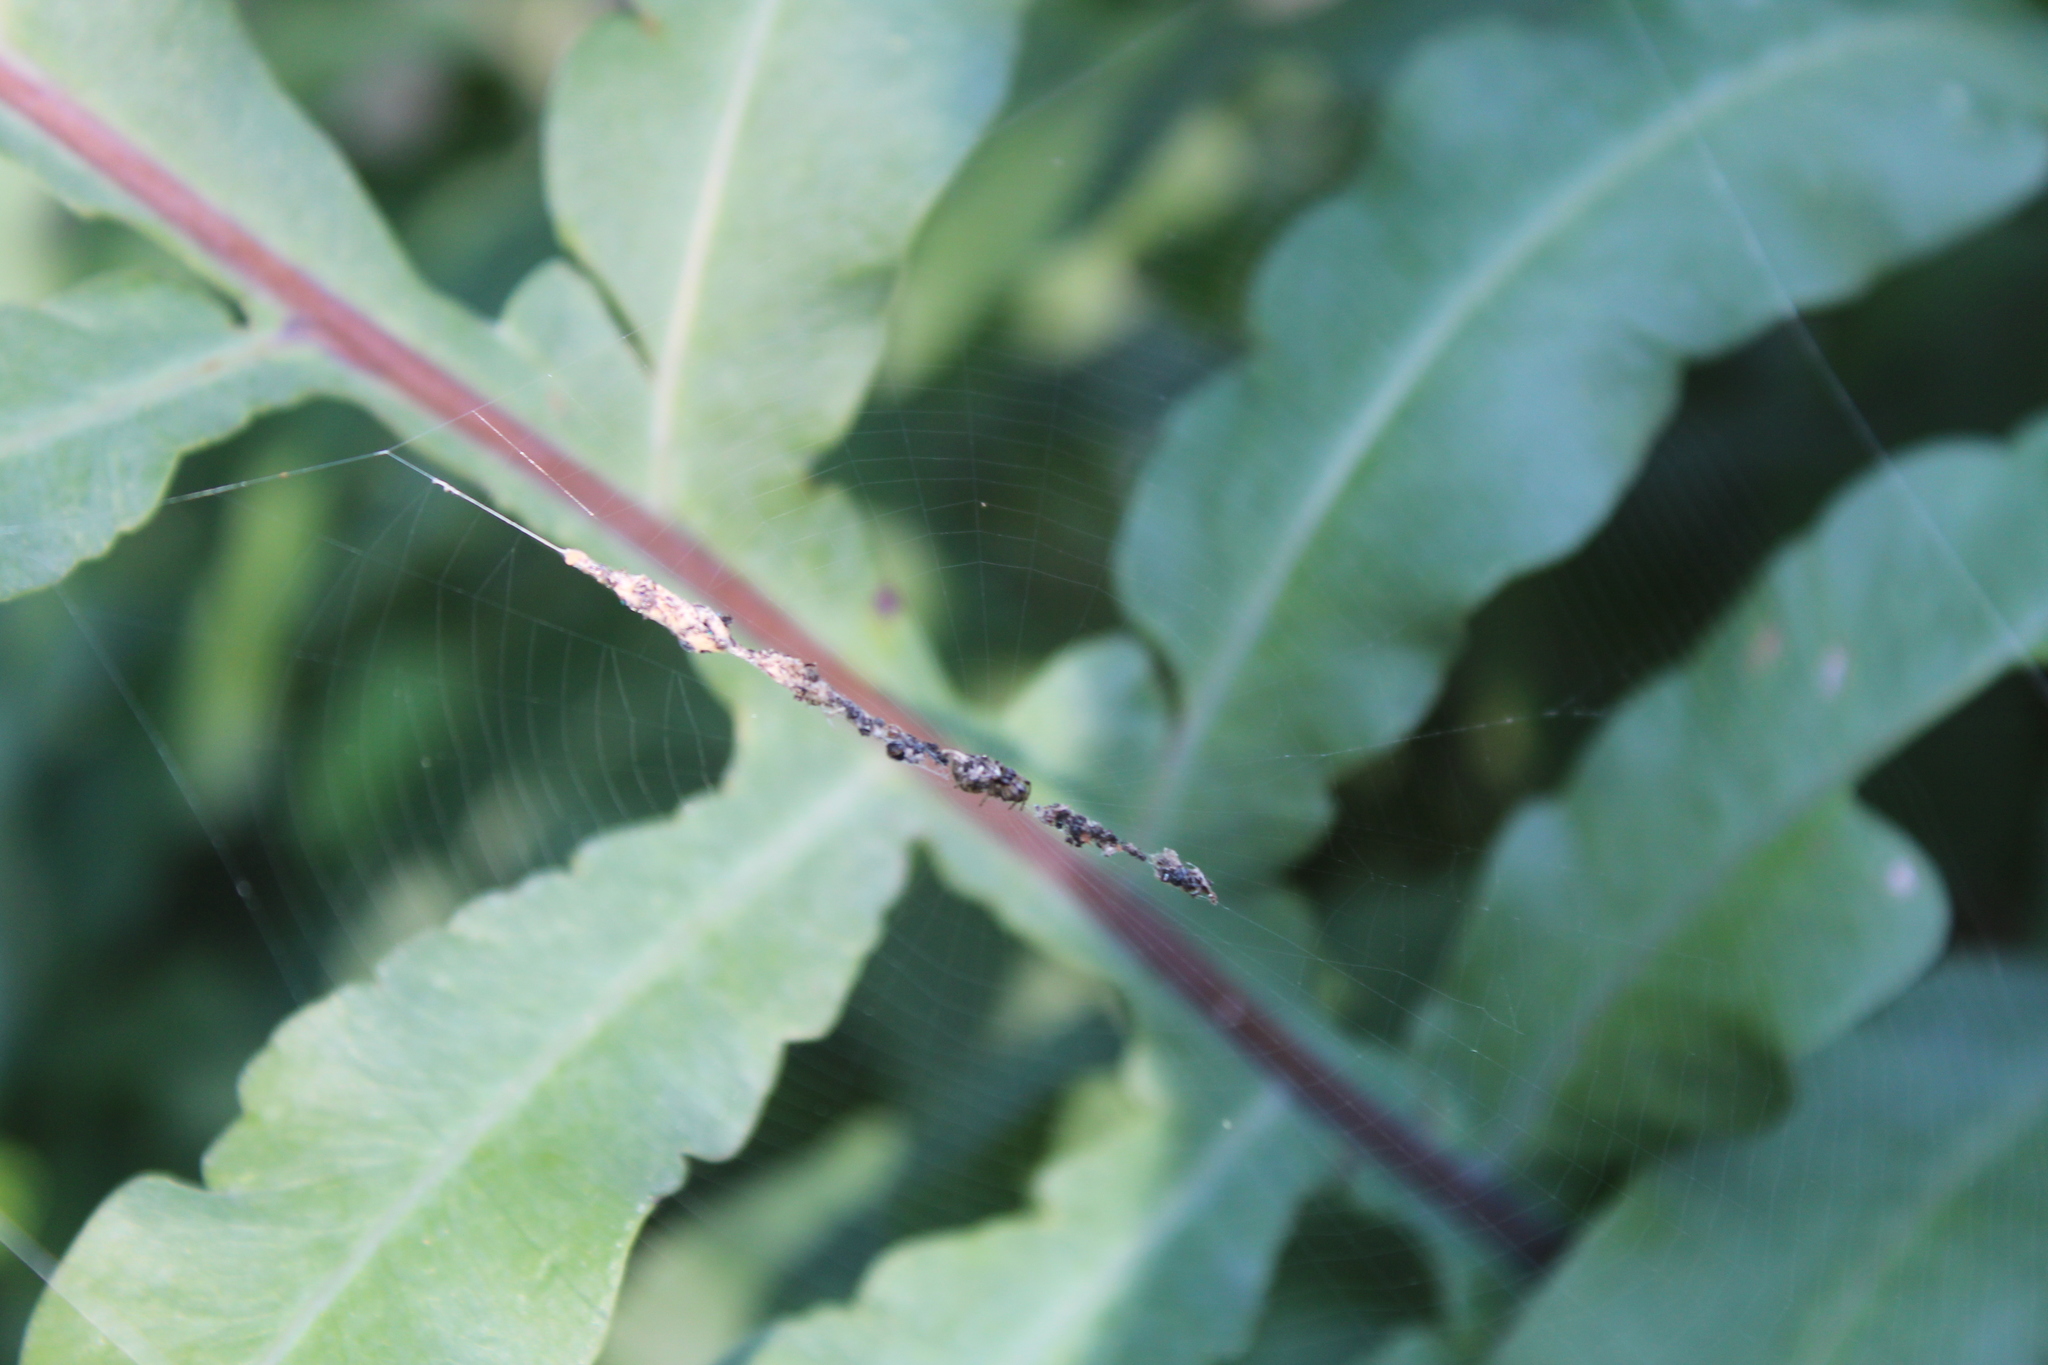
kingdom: Animalia
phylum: Arthropoda
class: Arachnida
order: Araneae
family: Araneidae
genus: Cyclosa
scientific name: Cyclosa turbinata
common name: Orb weavers
